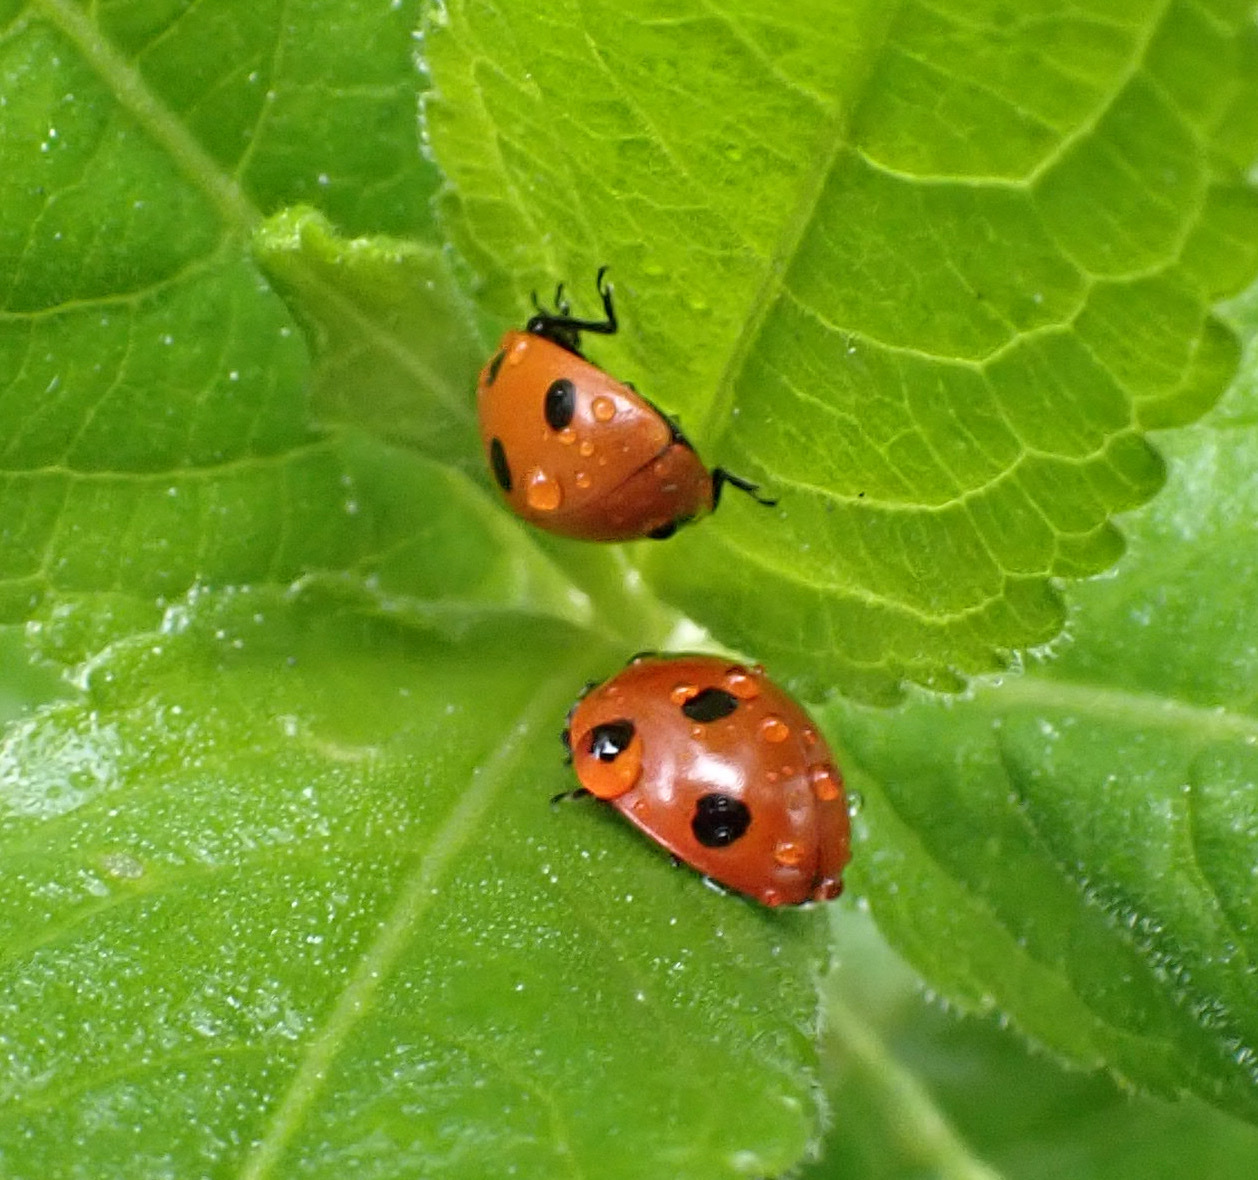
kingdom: Animalia
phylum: Arthropoda
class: Insecta
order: Coleoptera
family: Coccinellidae
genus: Coccinella
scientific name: Coccinella septempunctata
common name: Sevenspotted lady beetle
